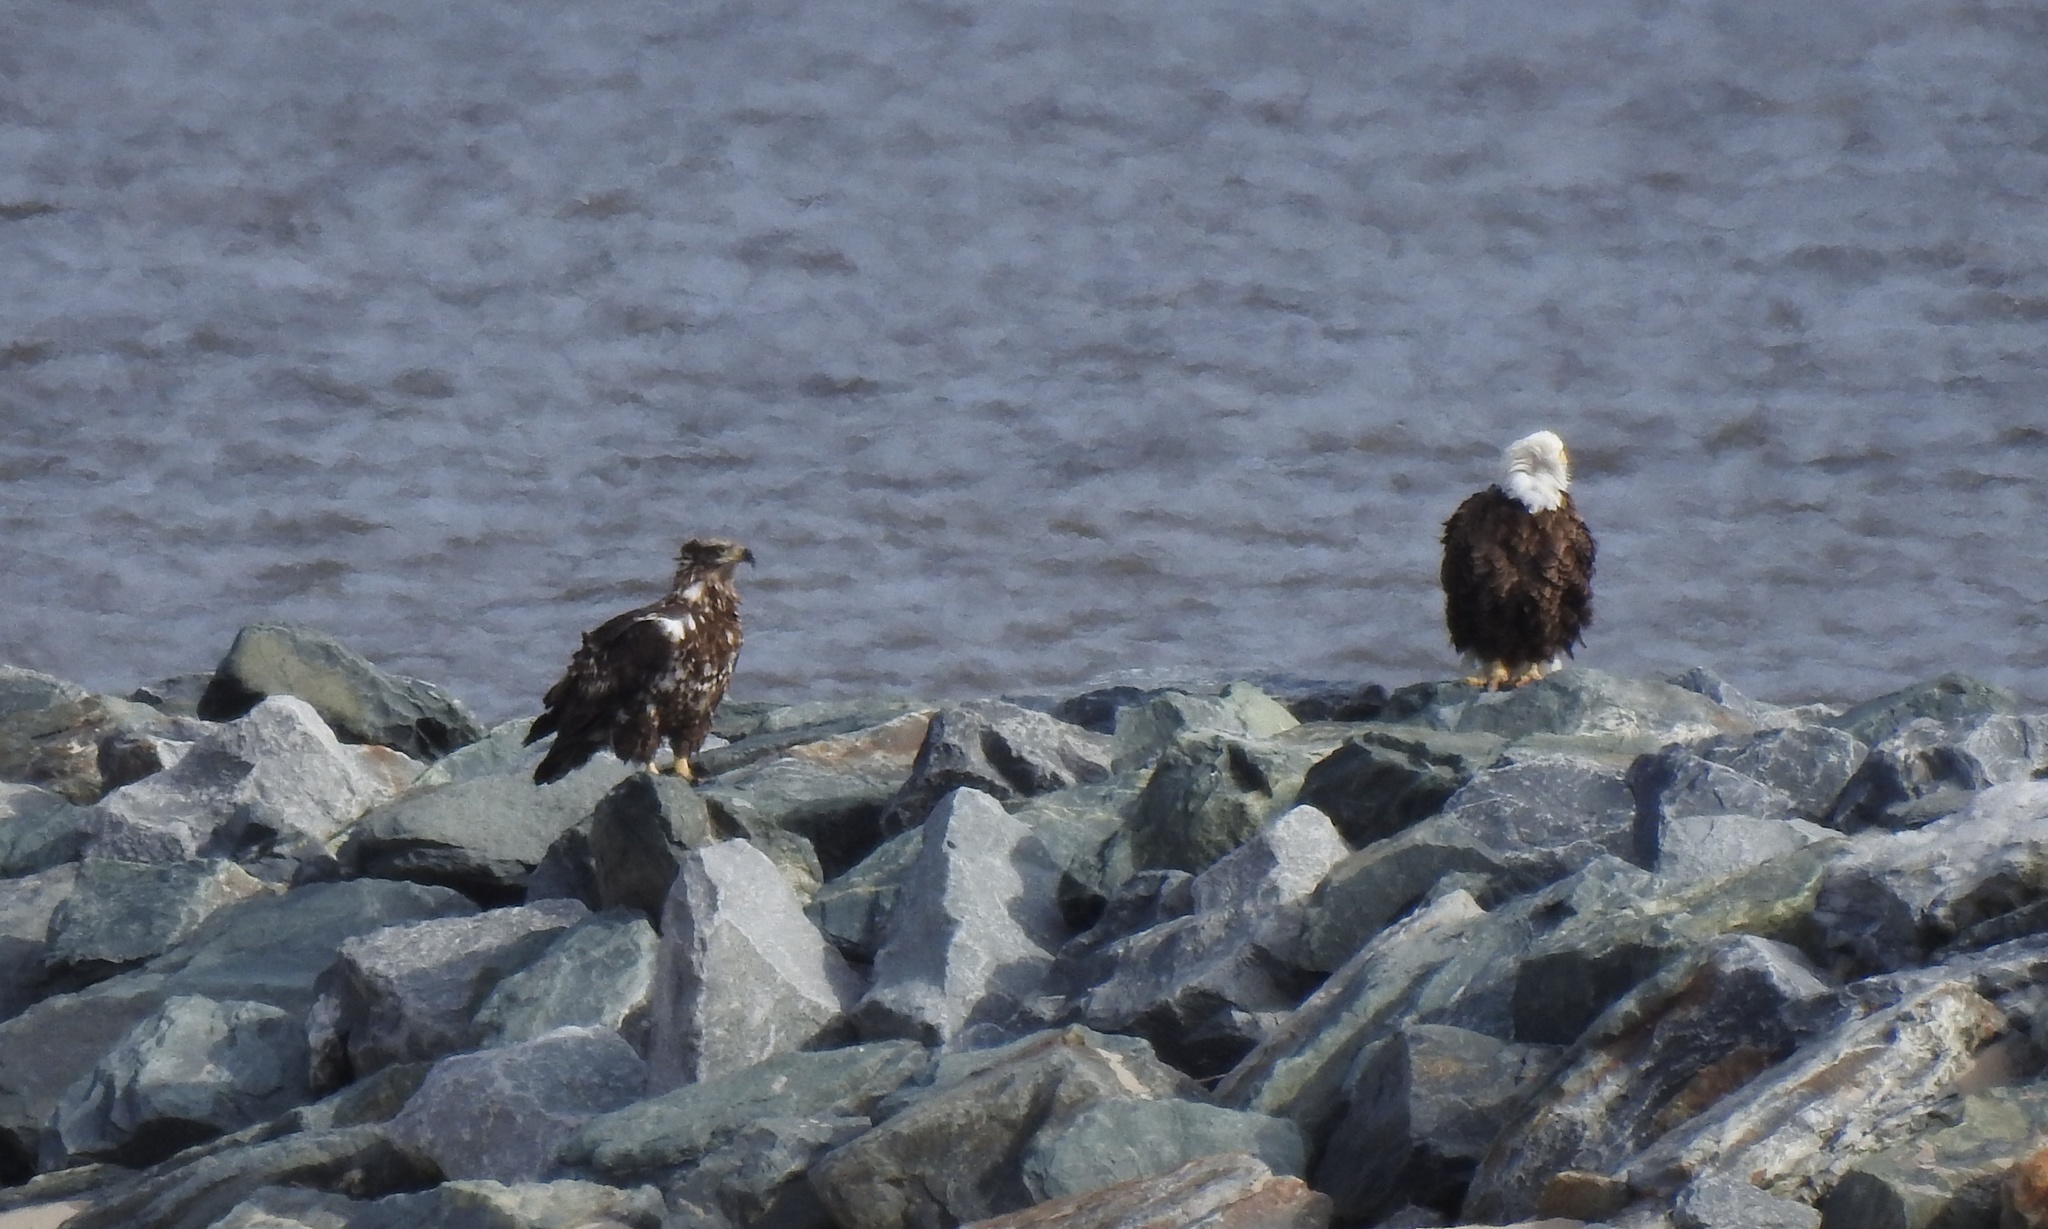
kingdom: Animalia
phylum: Chordata
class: Aves
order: Accipitriformes
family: Accipitridae
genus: Haliaeetus
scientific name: Haliaeetus leucocephalus
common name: Bald eagle
